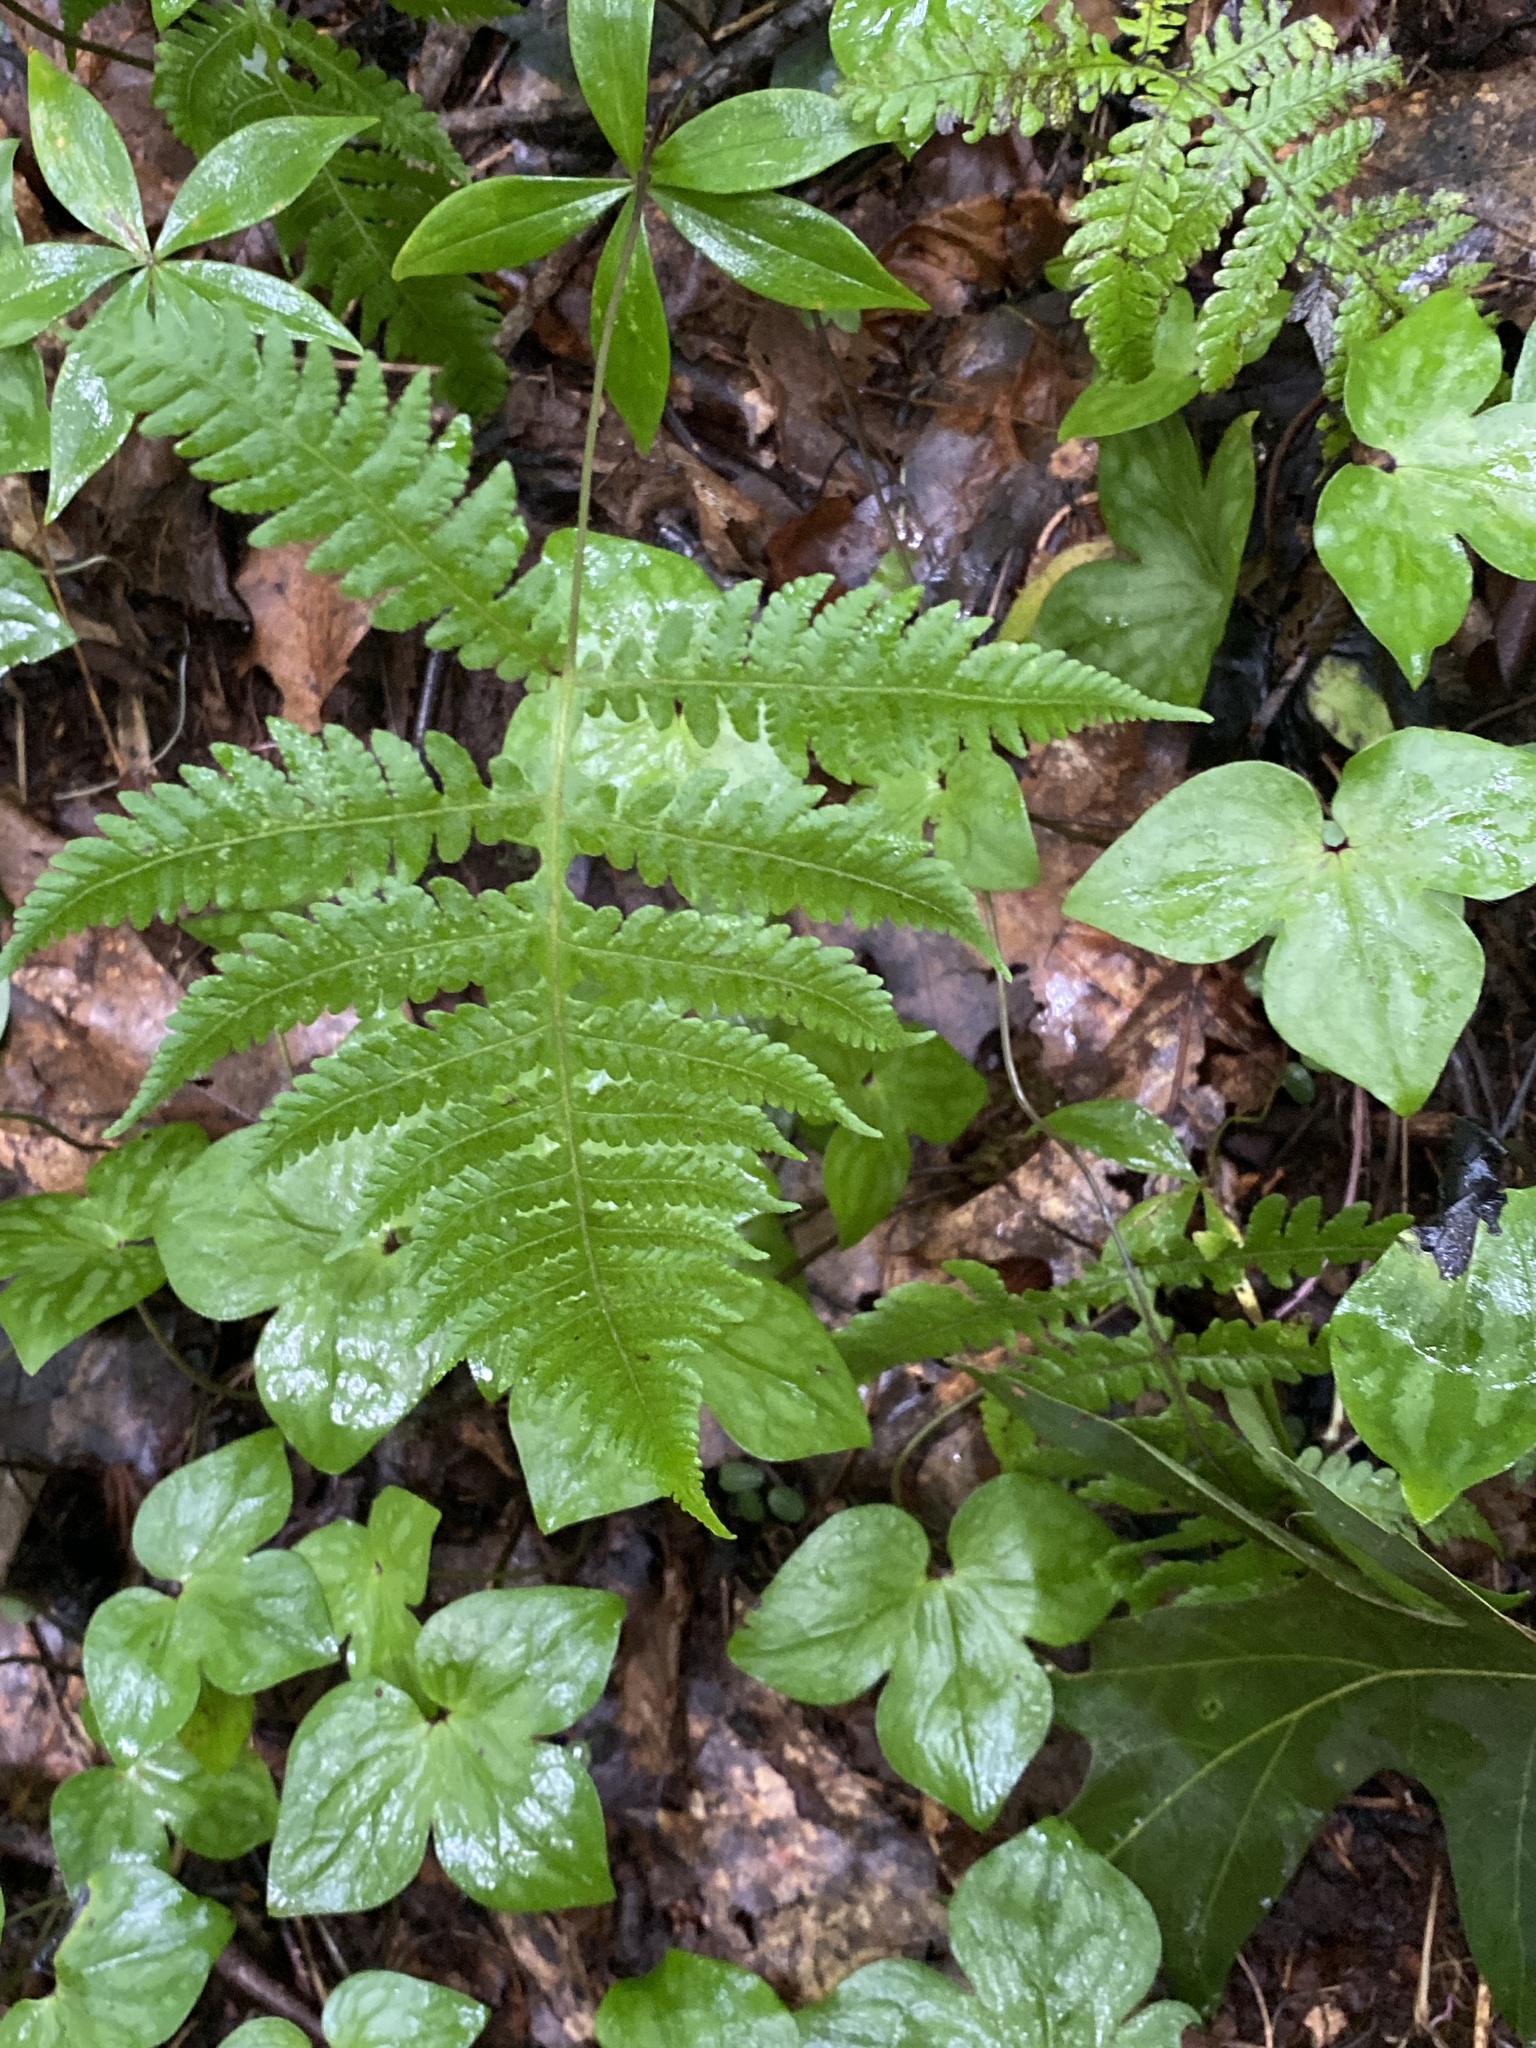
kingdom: Plantae
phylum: Tracheophyta
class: Polypodiopsida
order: Polypodiales
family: Thelypteridaceae
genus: Phegopteris
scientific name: Phegopteris hexagonoptera
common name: Broad beech fern
